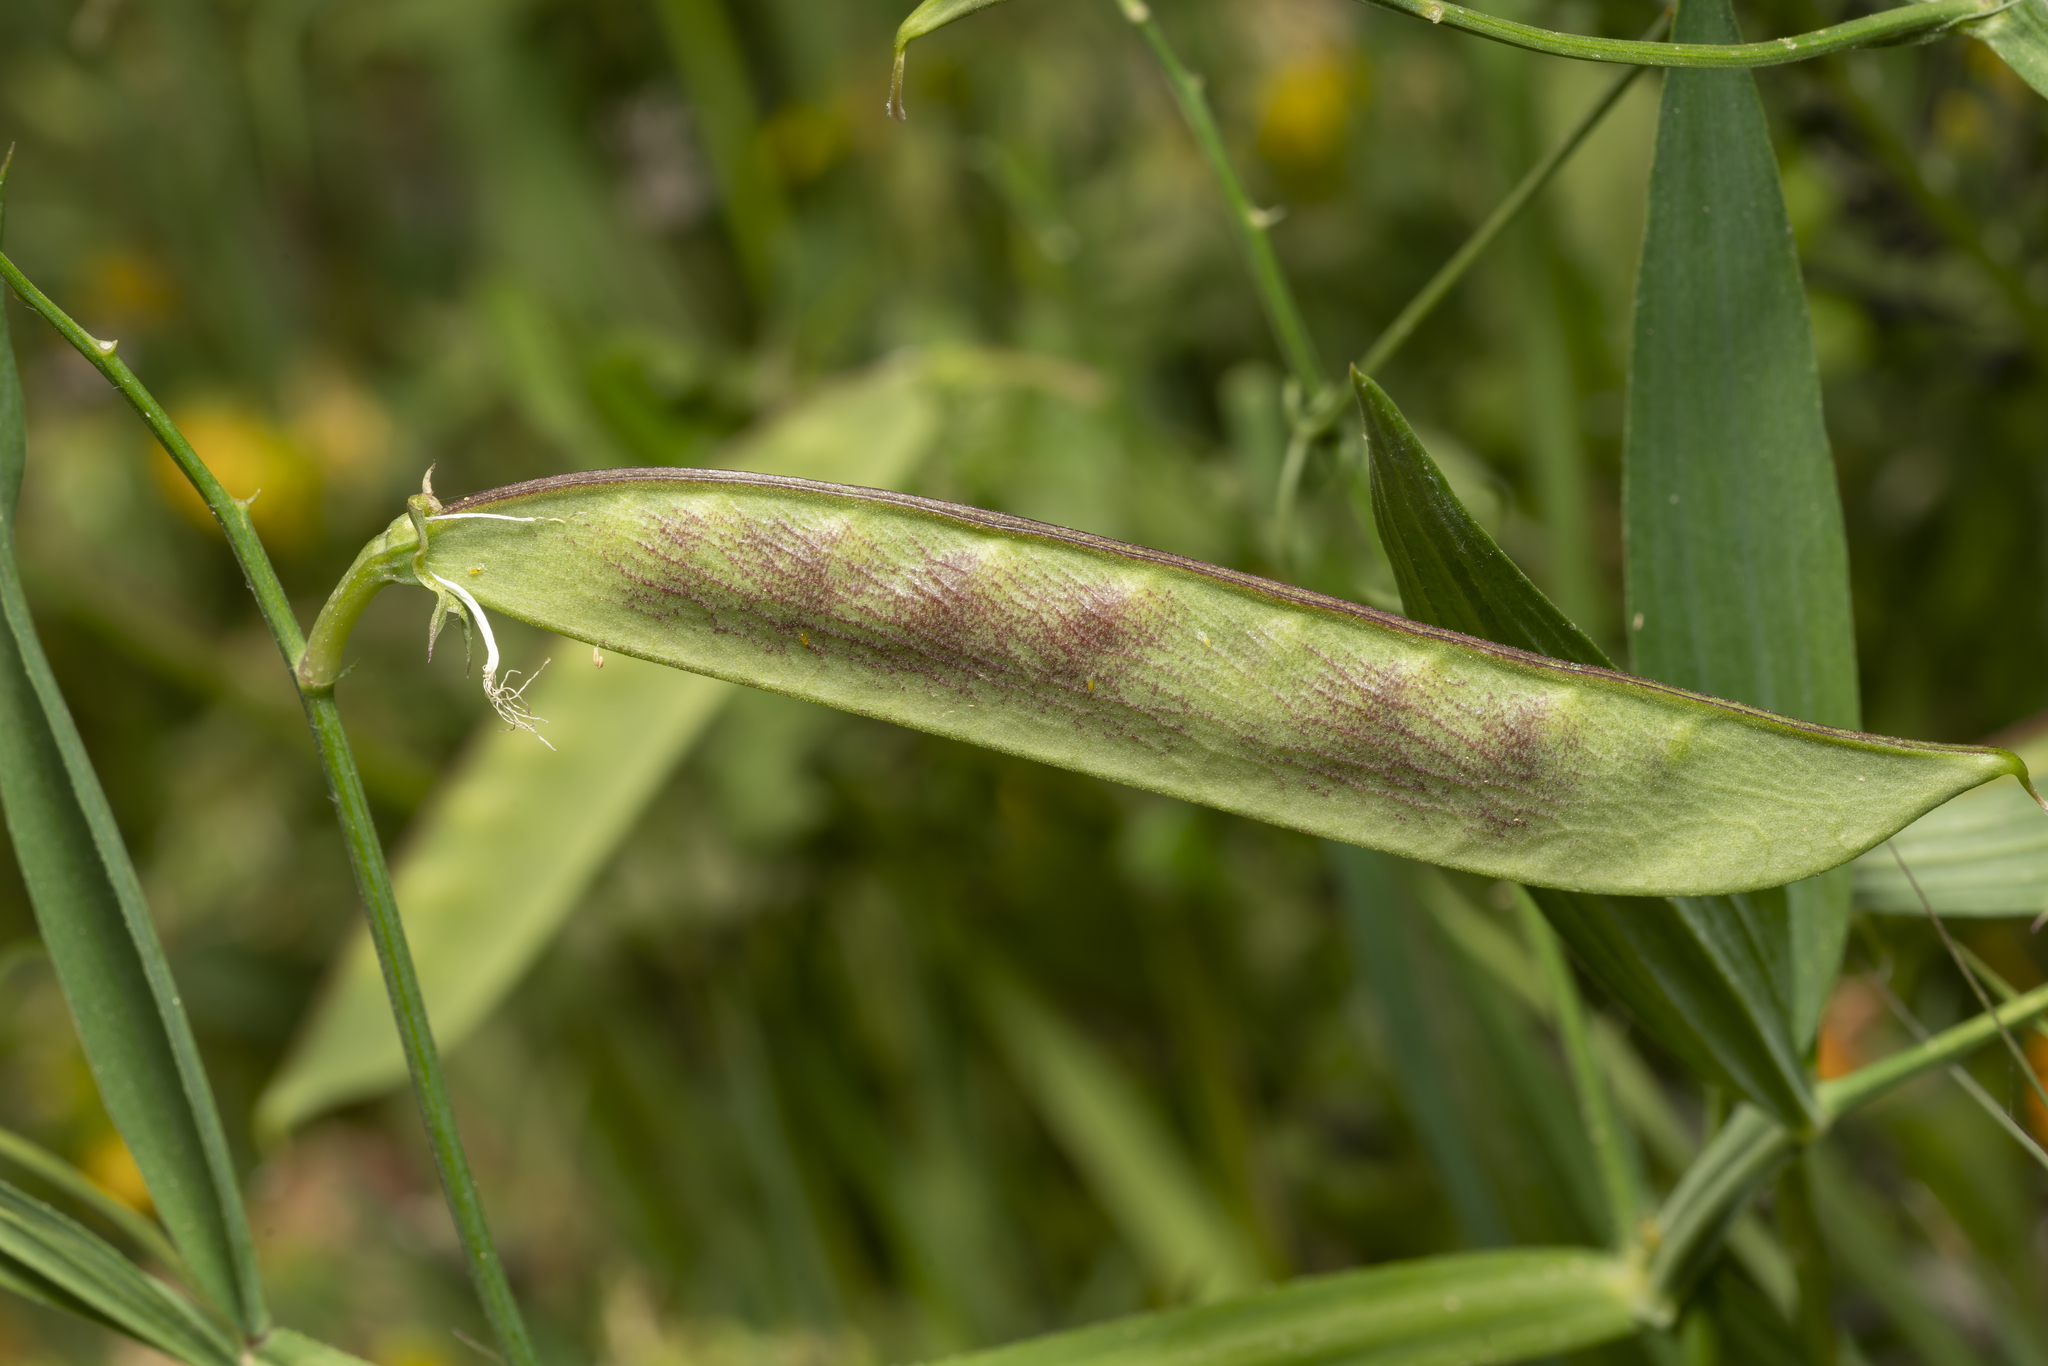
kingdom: Plantae
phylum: Tracheophyta
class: Magnoliopsida
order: Fabales
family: Fabaceae
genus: Lathyrus
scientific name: Lathyrus annuus
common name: Fodder pea
